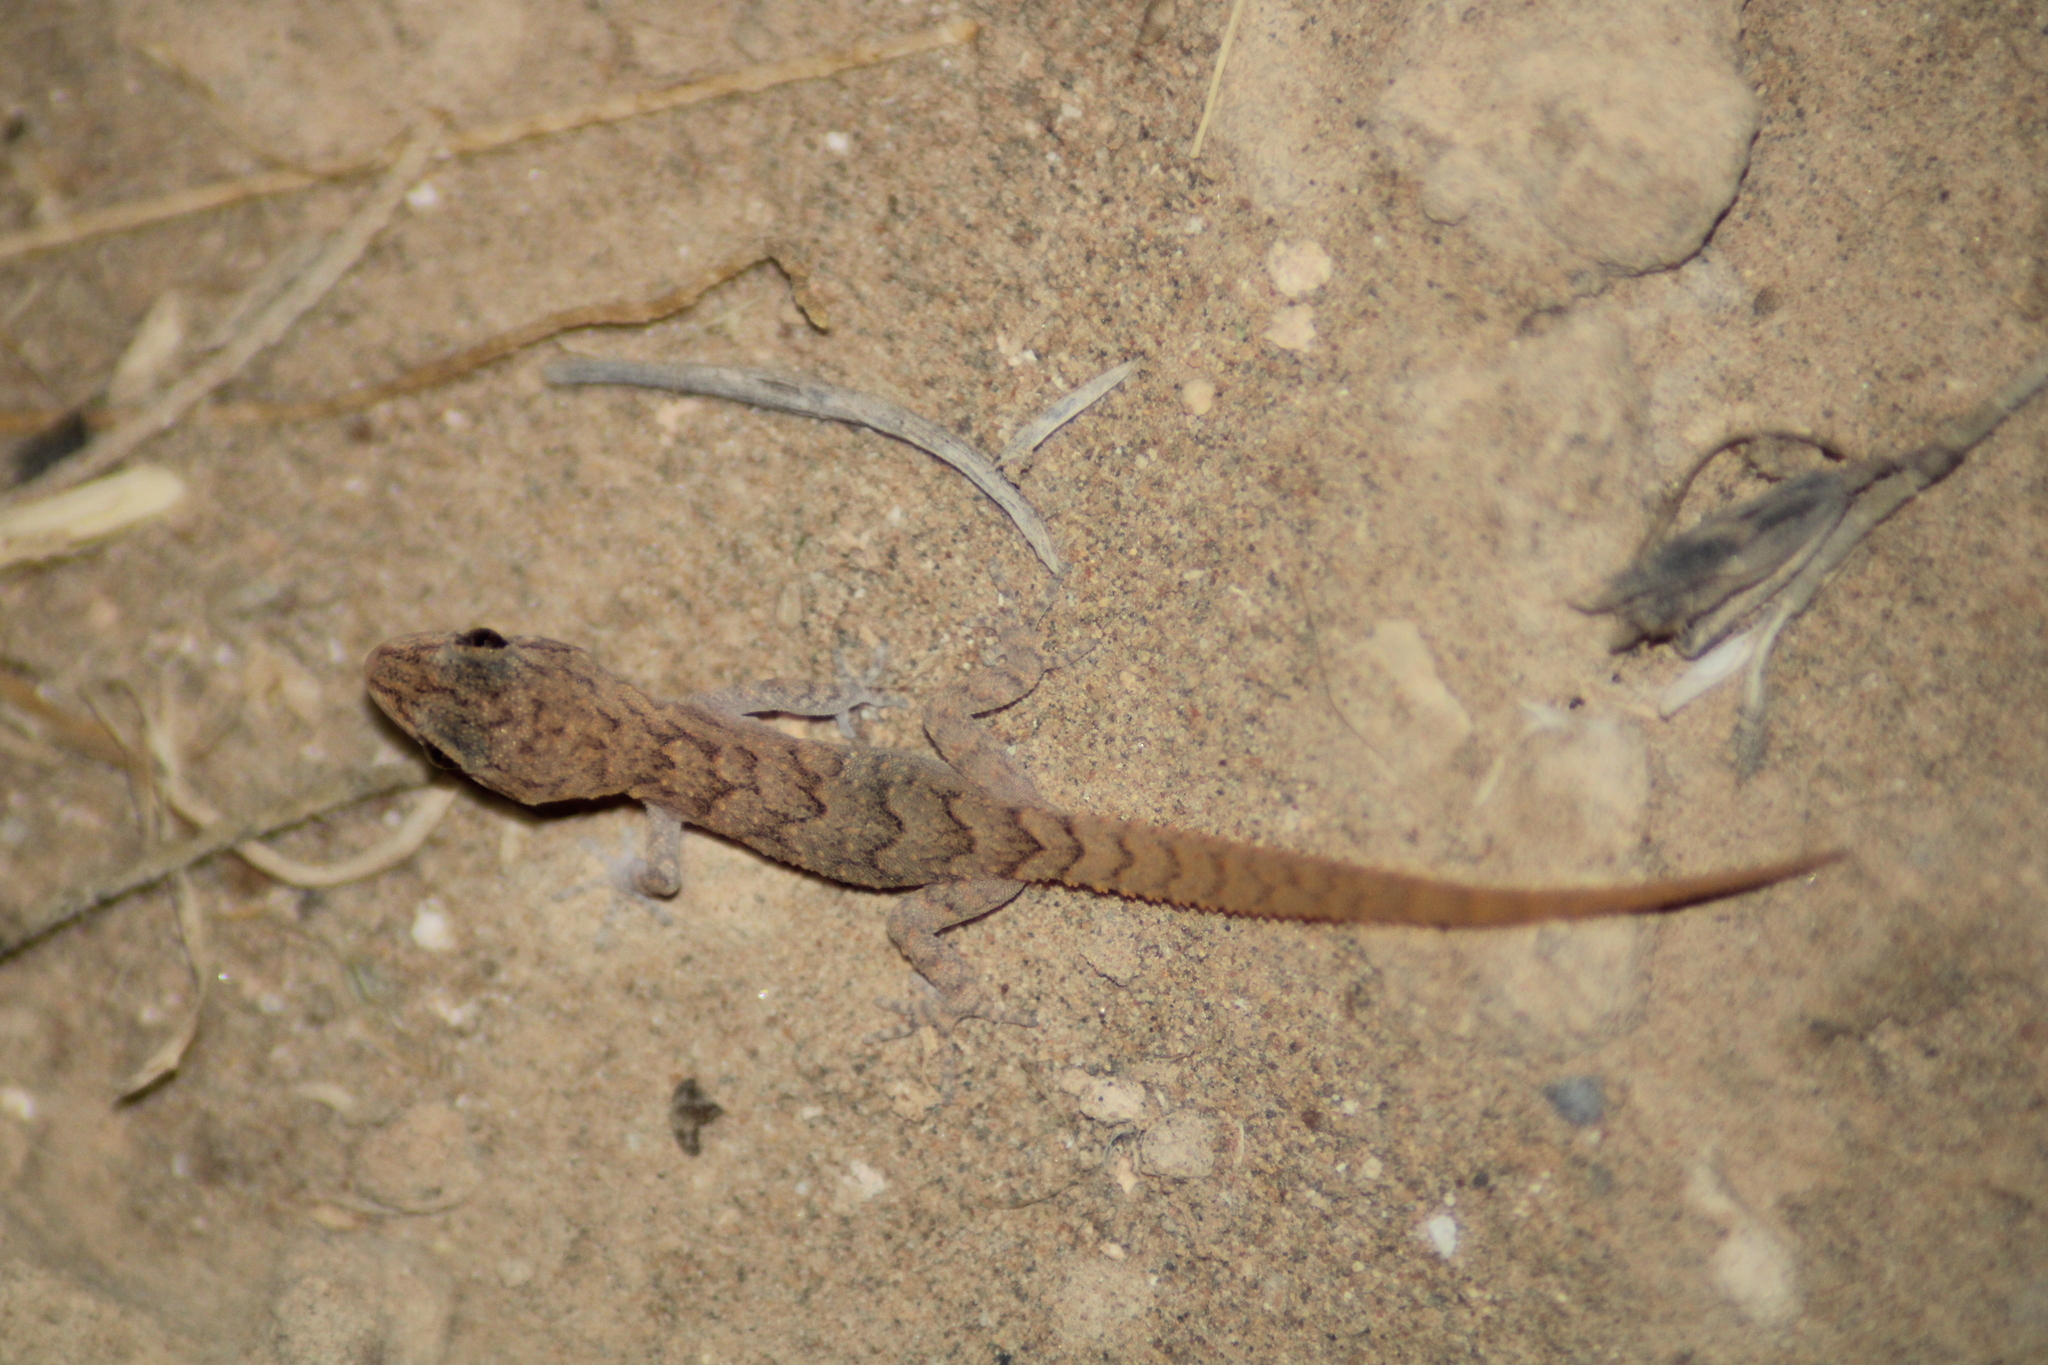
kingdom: Animalia
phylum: Chordata
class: Squamata
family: Gekkonidae
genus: Mediodactylus
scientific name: Mediodactylus orientalis
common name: Mediterranean thin-toed gecko
